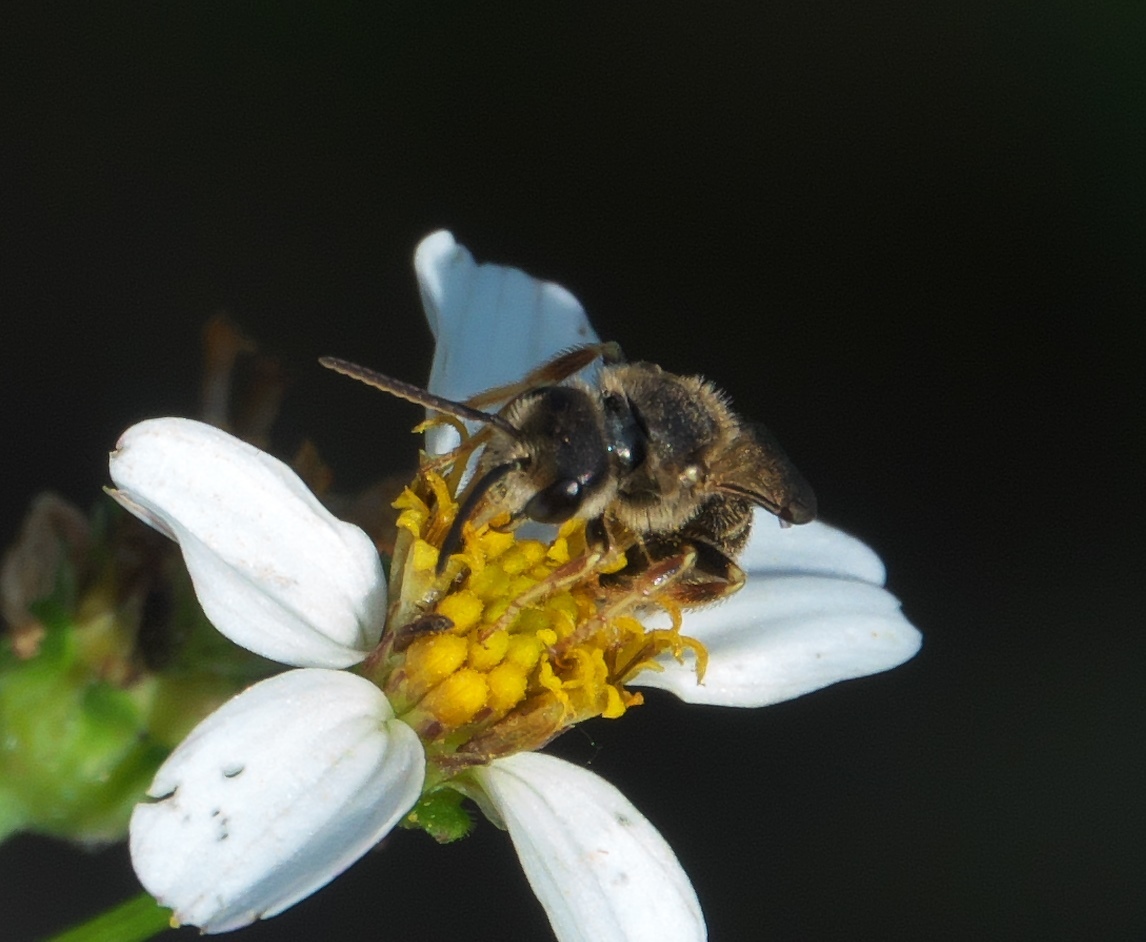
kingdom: Animalia
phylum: Arthropoda
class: Insecta
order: Hymenoptera
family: Halictidae
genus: Halictus
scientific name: Halictus poeyi
